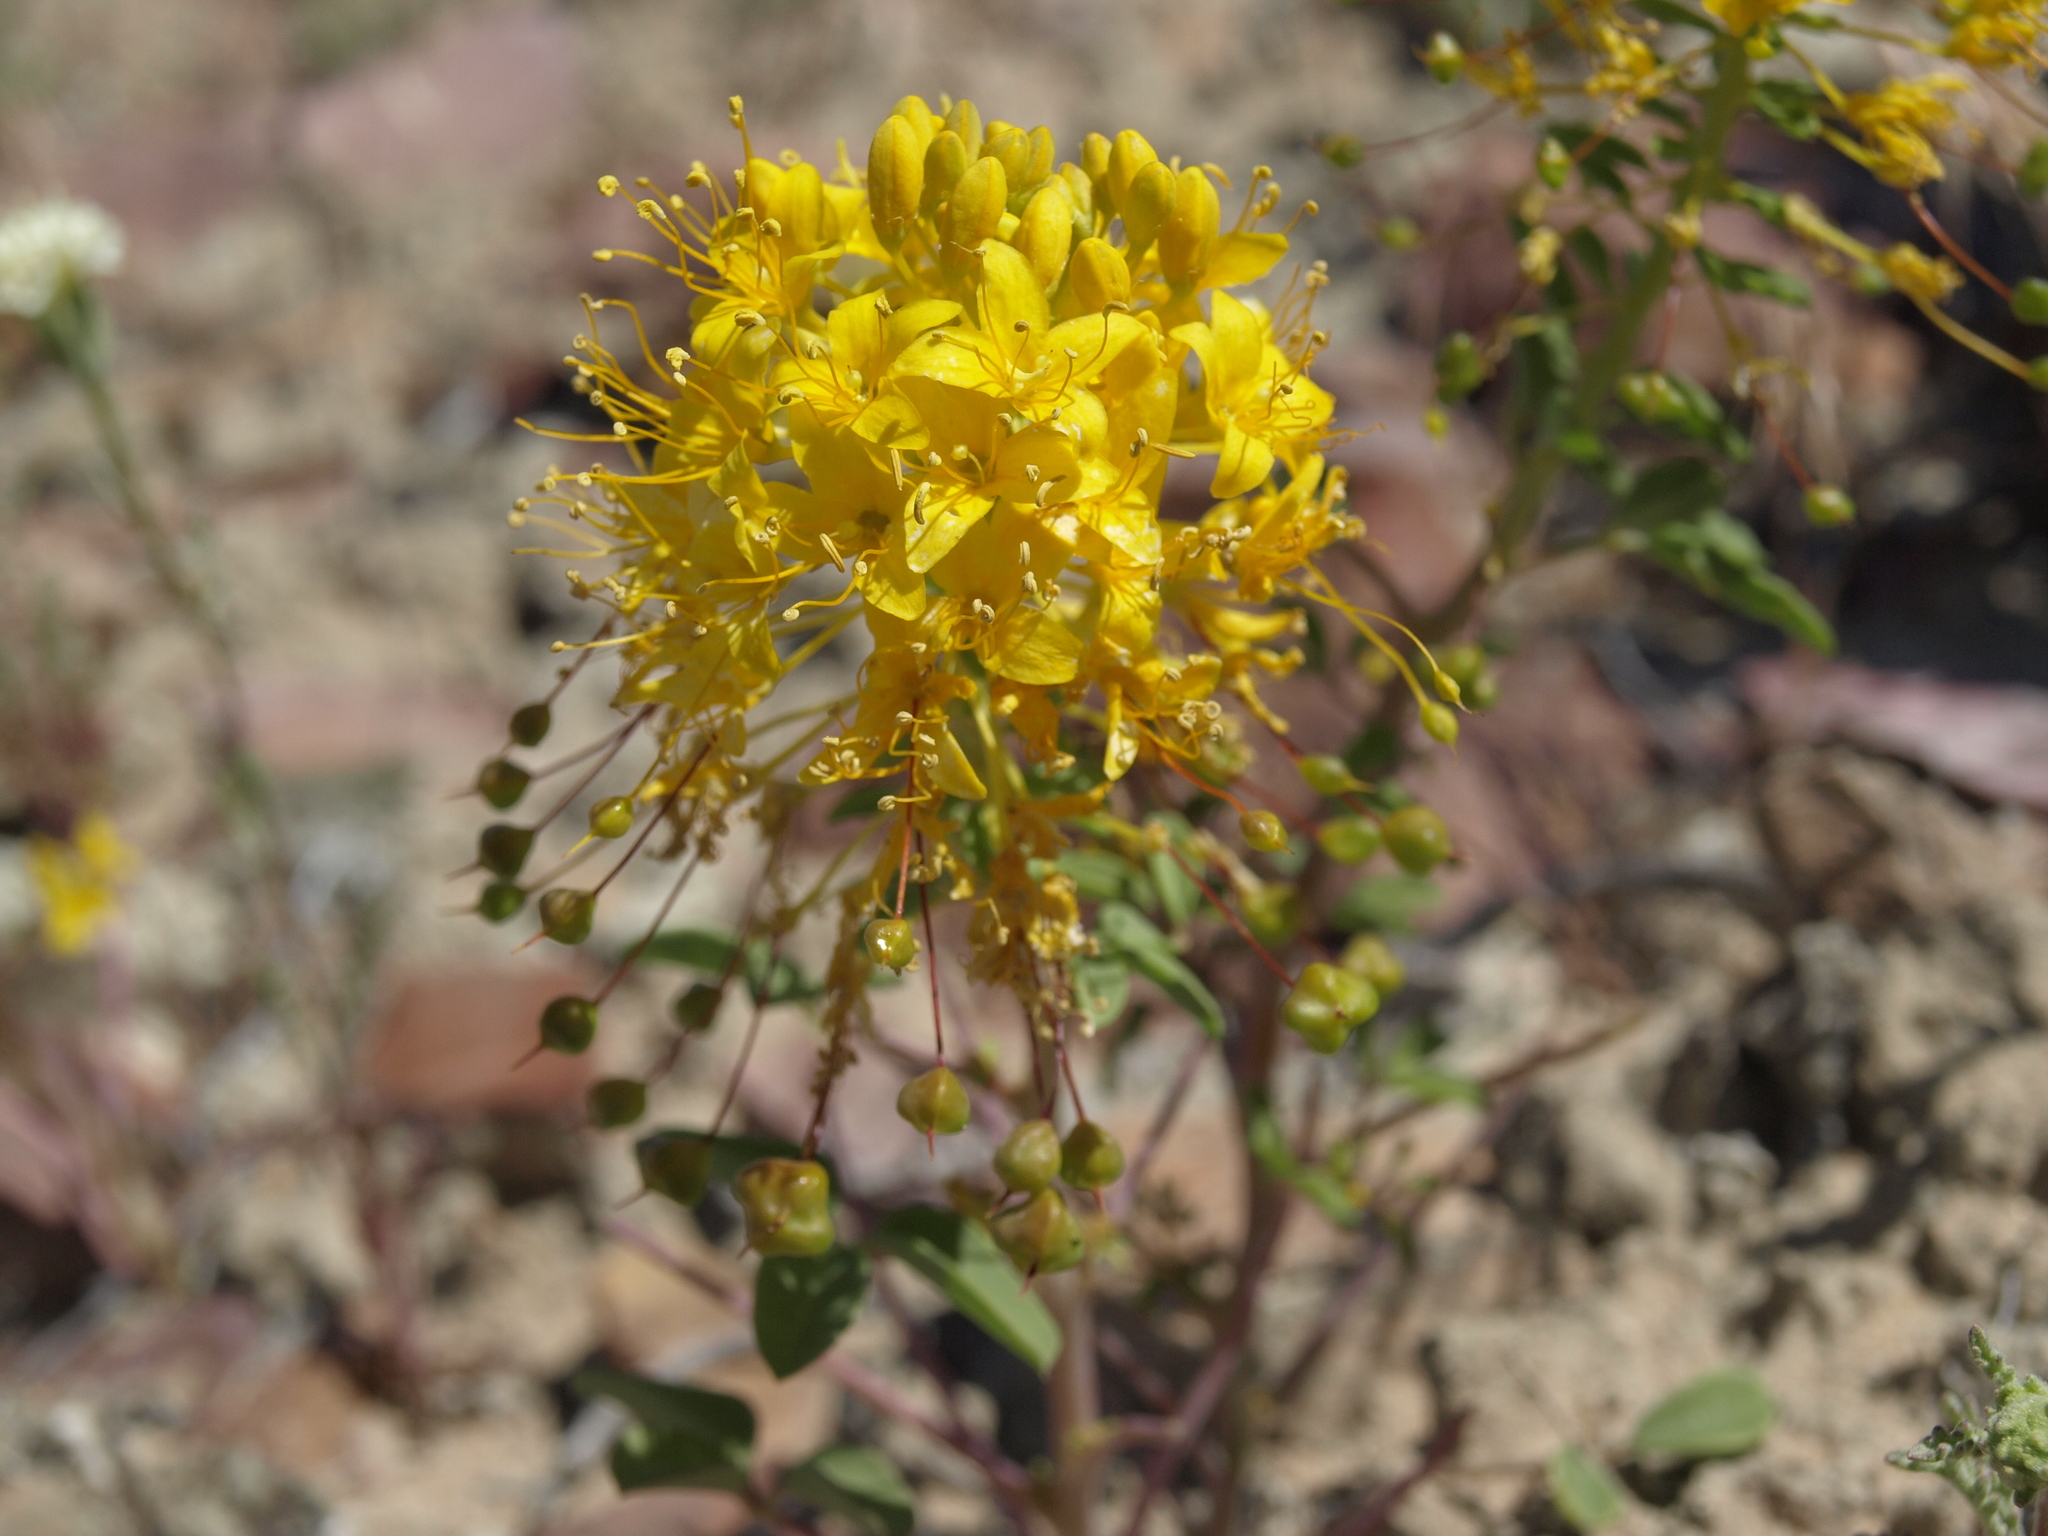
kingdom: Plantae
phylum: Tracheophyta
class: Magnoliopsida
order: Brassicales
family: Cleomaceae
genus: Cleomella
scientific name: Cleomella hillmanii
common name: Desert stinkweed
